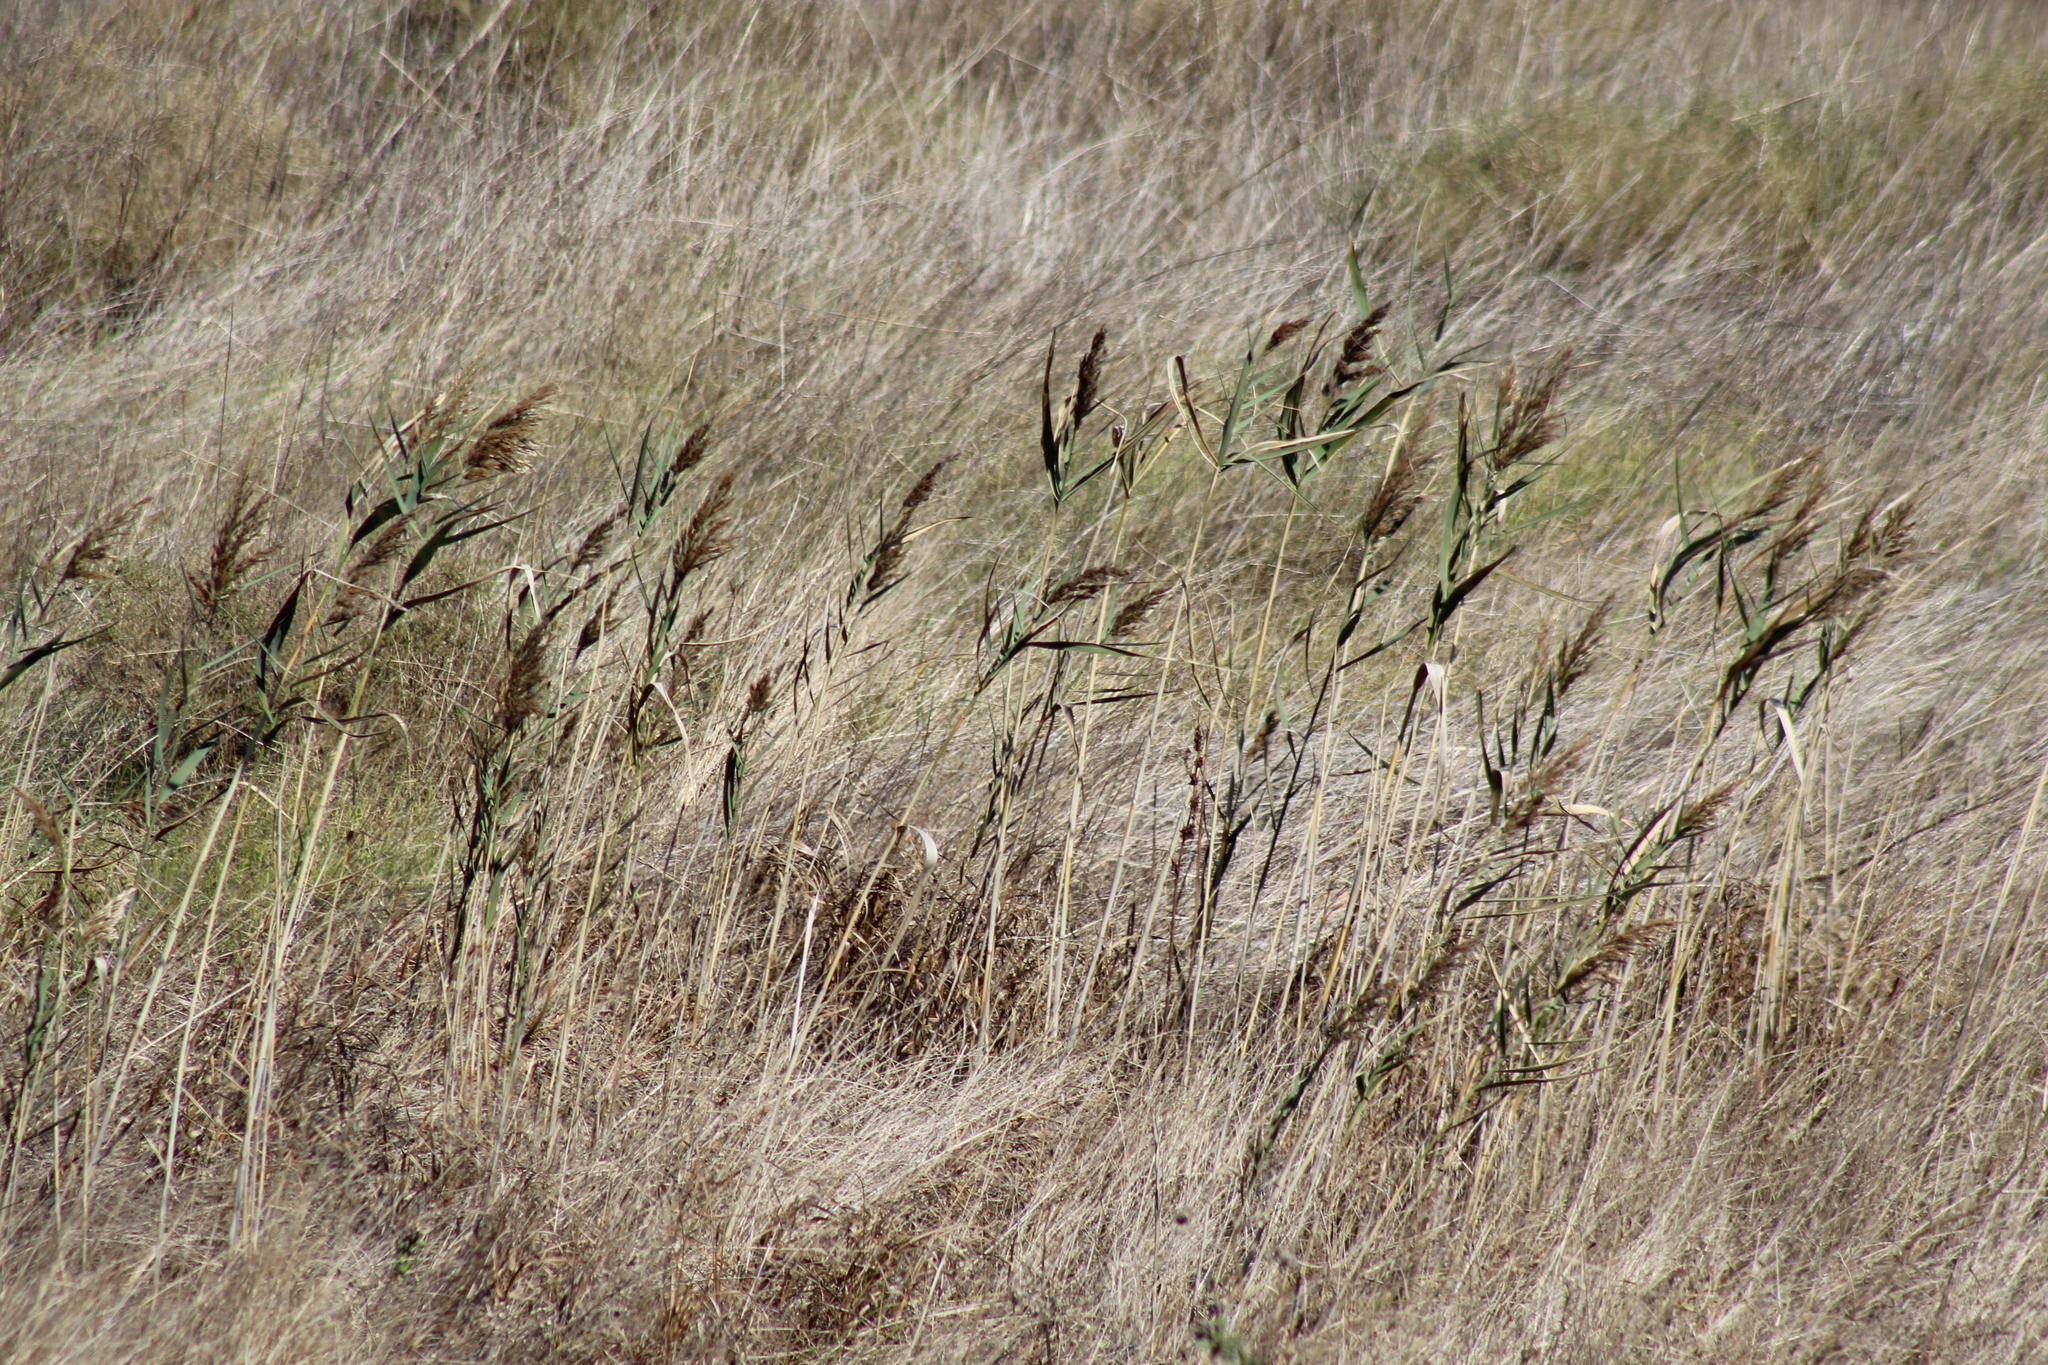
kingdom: Plantae
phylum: Tracheophyta
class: Liliopsida
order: Poales
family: Poaceae
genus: Phragmites
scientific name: Phragmites australis
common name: Common reed
